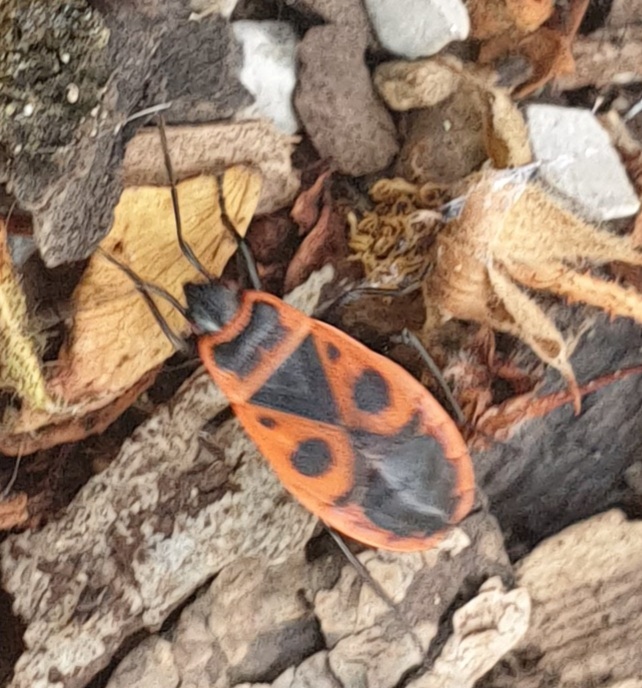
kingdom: Animalia
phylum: Arthropoda
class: Insecta
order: Hemiptera
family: Pyrrhocoridae
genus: Pyrrhocoris
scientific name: Pyrrhocoris apterus
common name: Firebug
